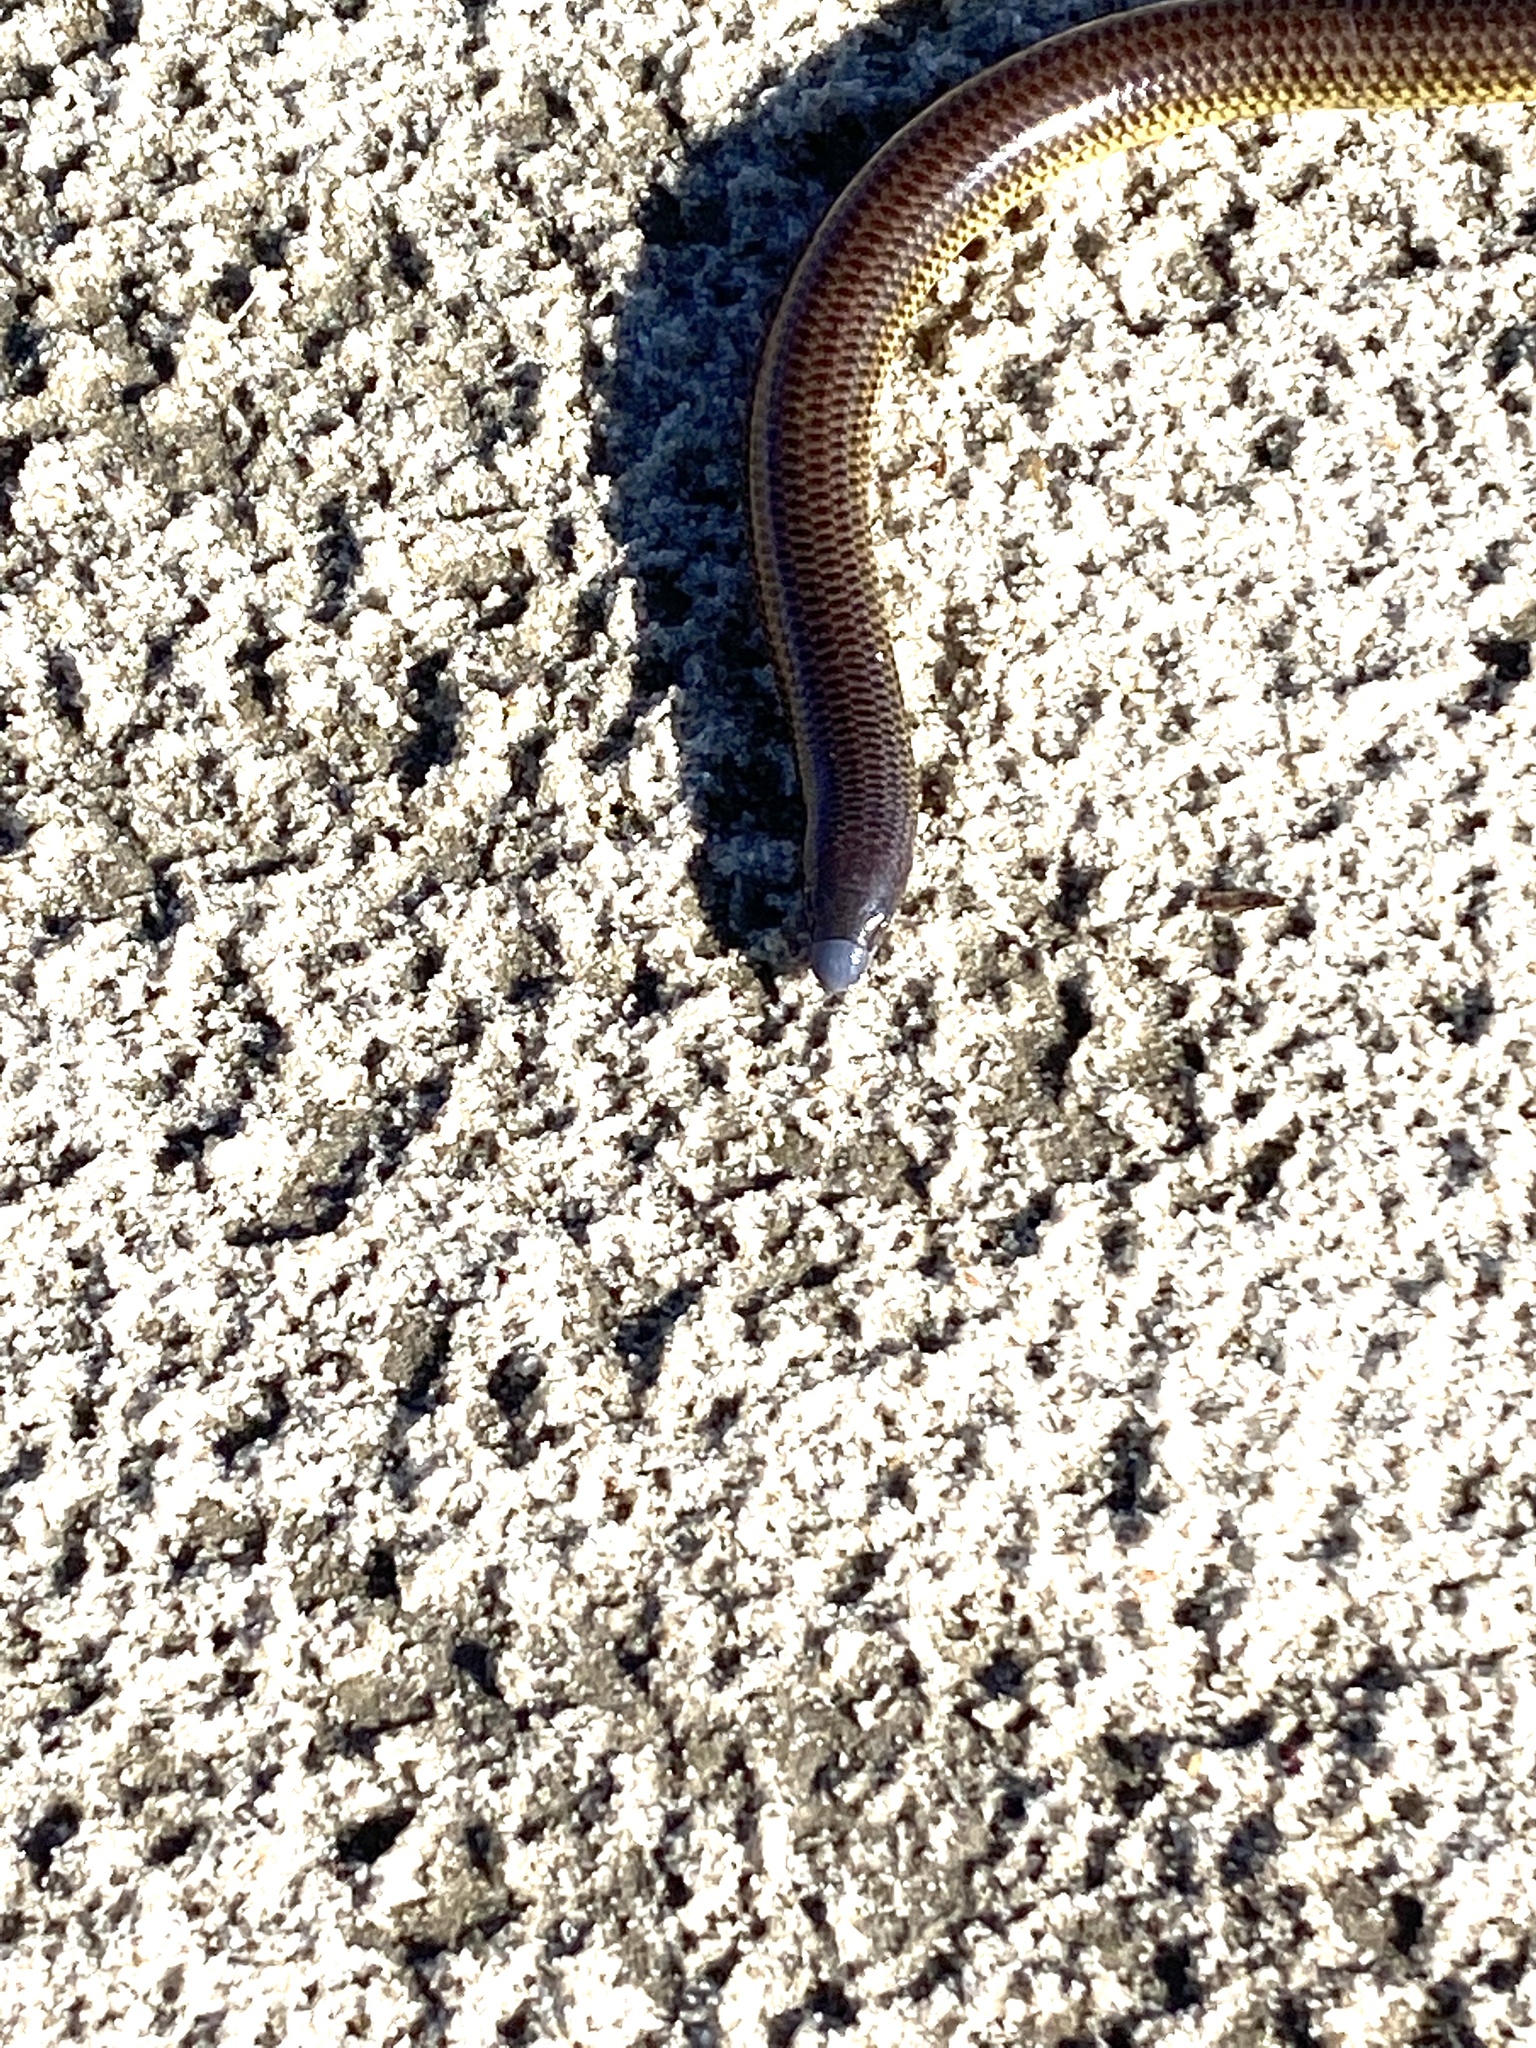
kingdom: Animalia
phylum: Chordata
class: Squamata
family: Scincidae
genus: Acontias
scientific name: Acontias meleagris
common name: Cape legless skink
